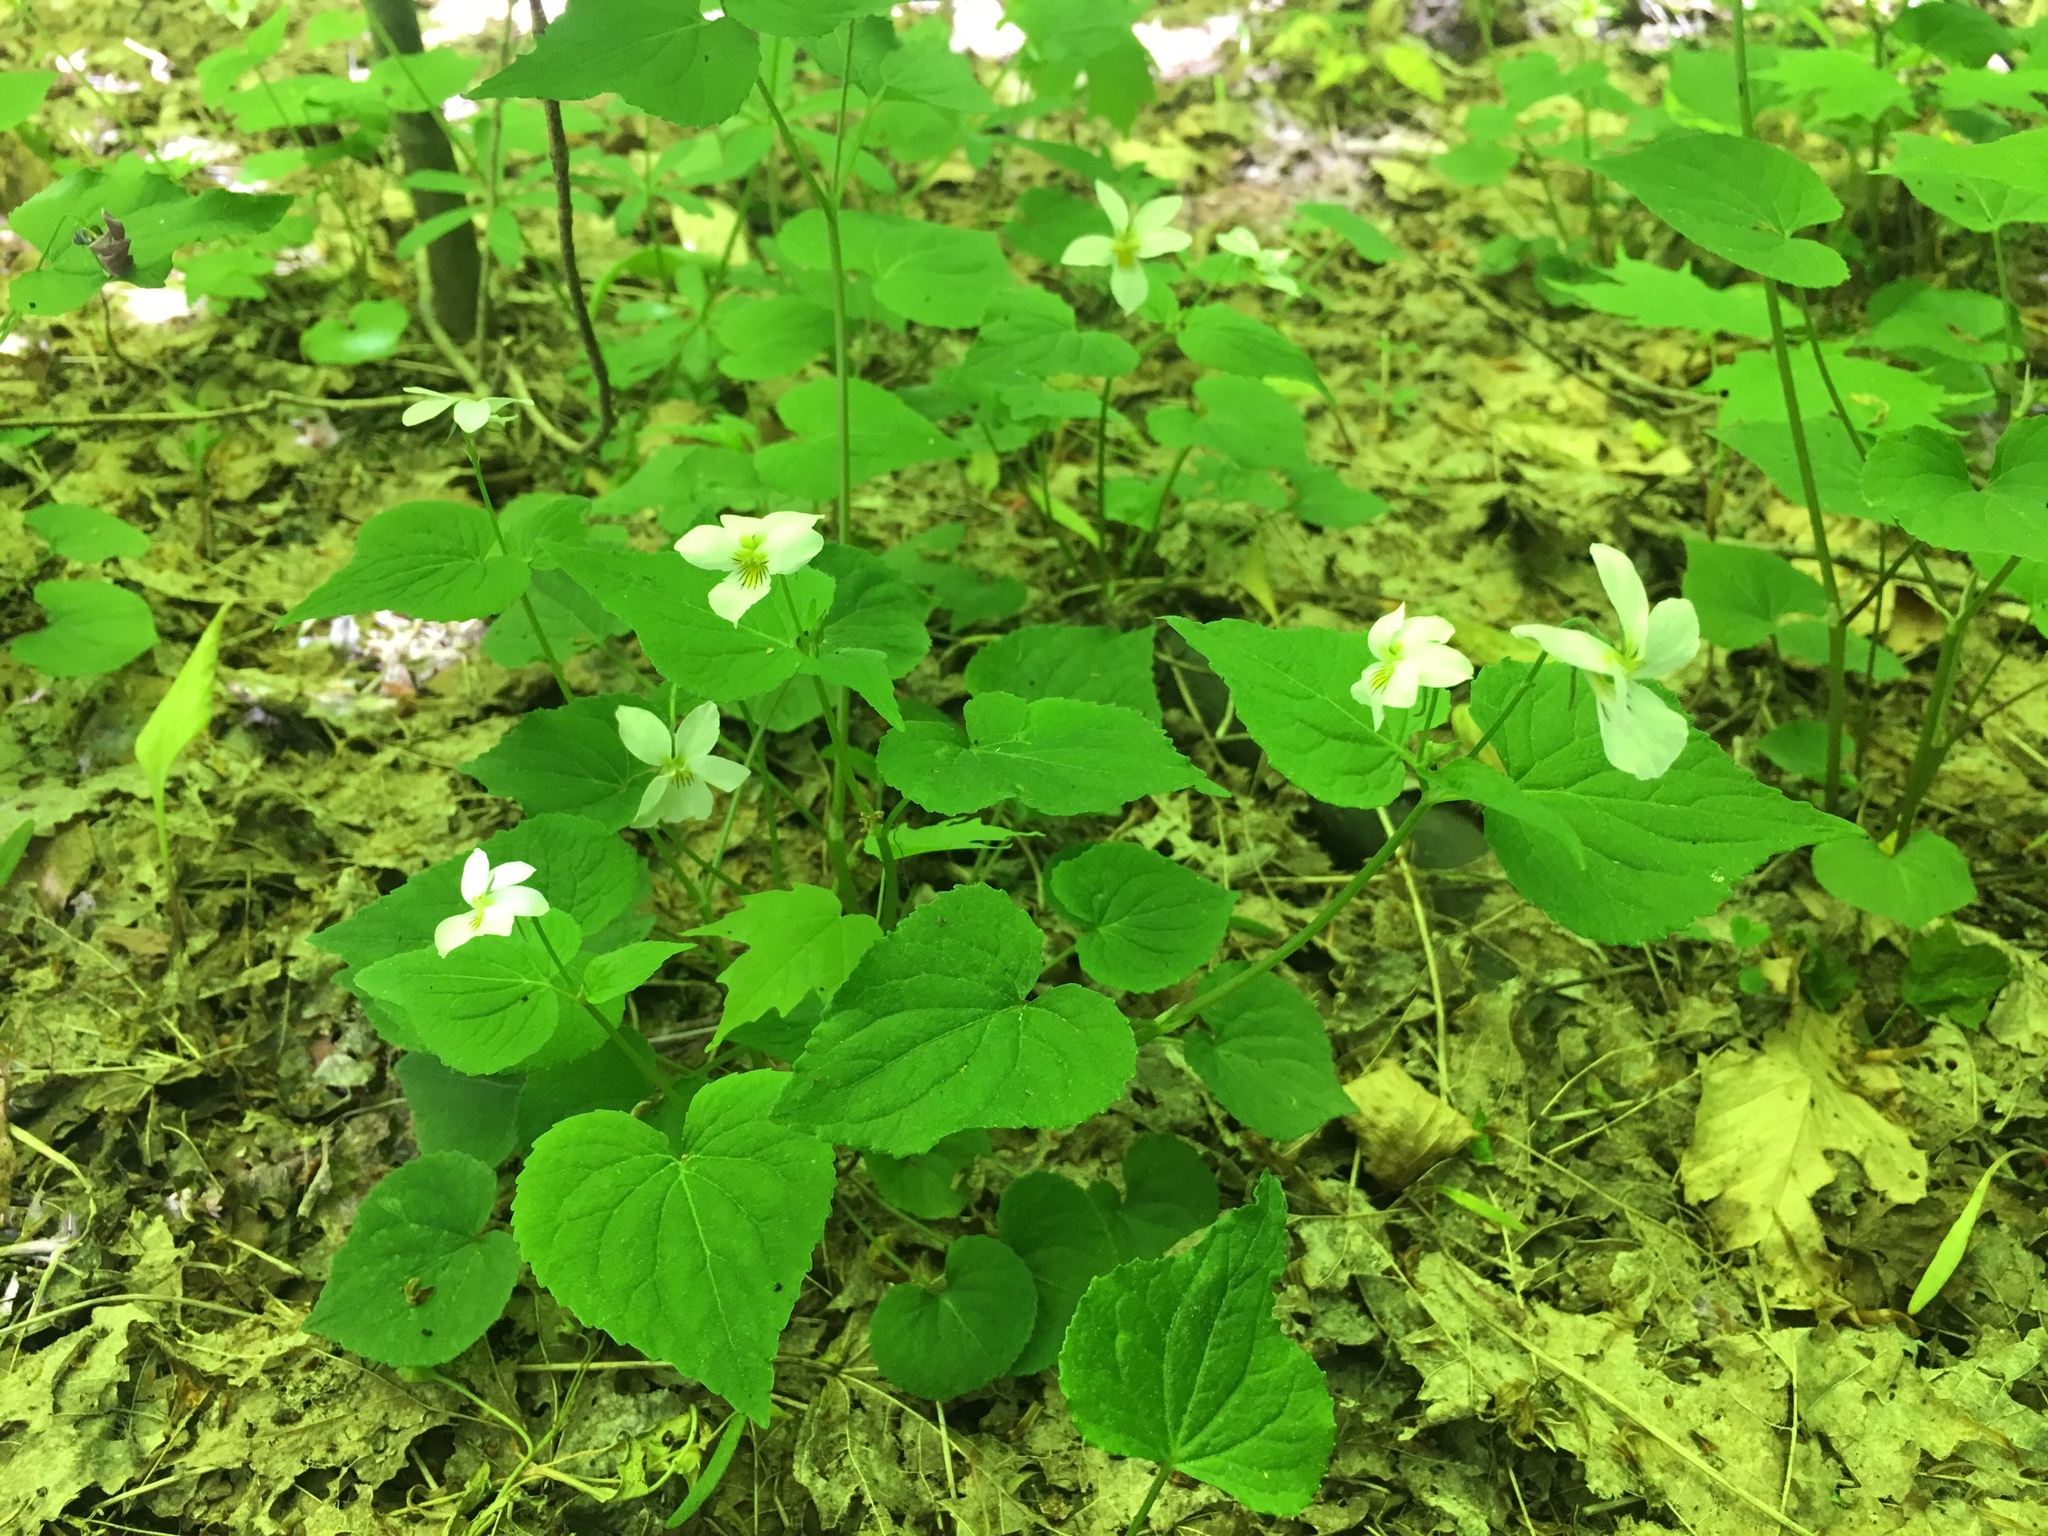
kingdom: Plantae
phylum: Tracheophyta
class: Magnoliopsida
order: Malpighiales
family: Violaceae
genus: Viola
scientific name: Viola canadensis
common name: Canada violet
